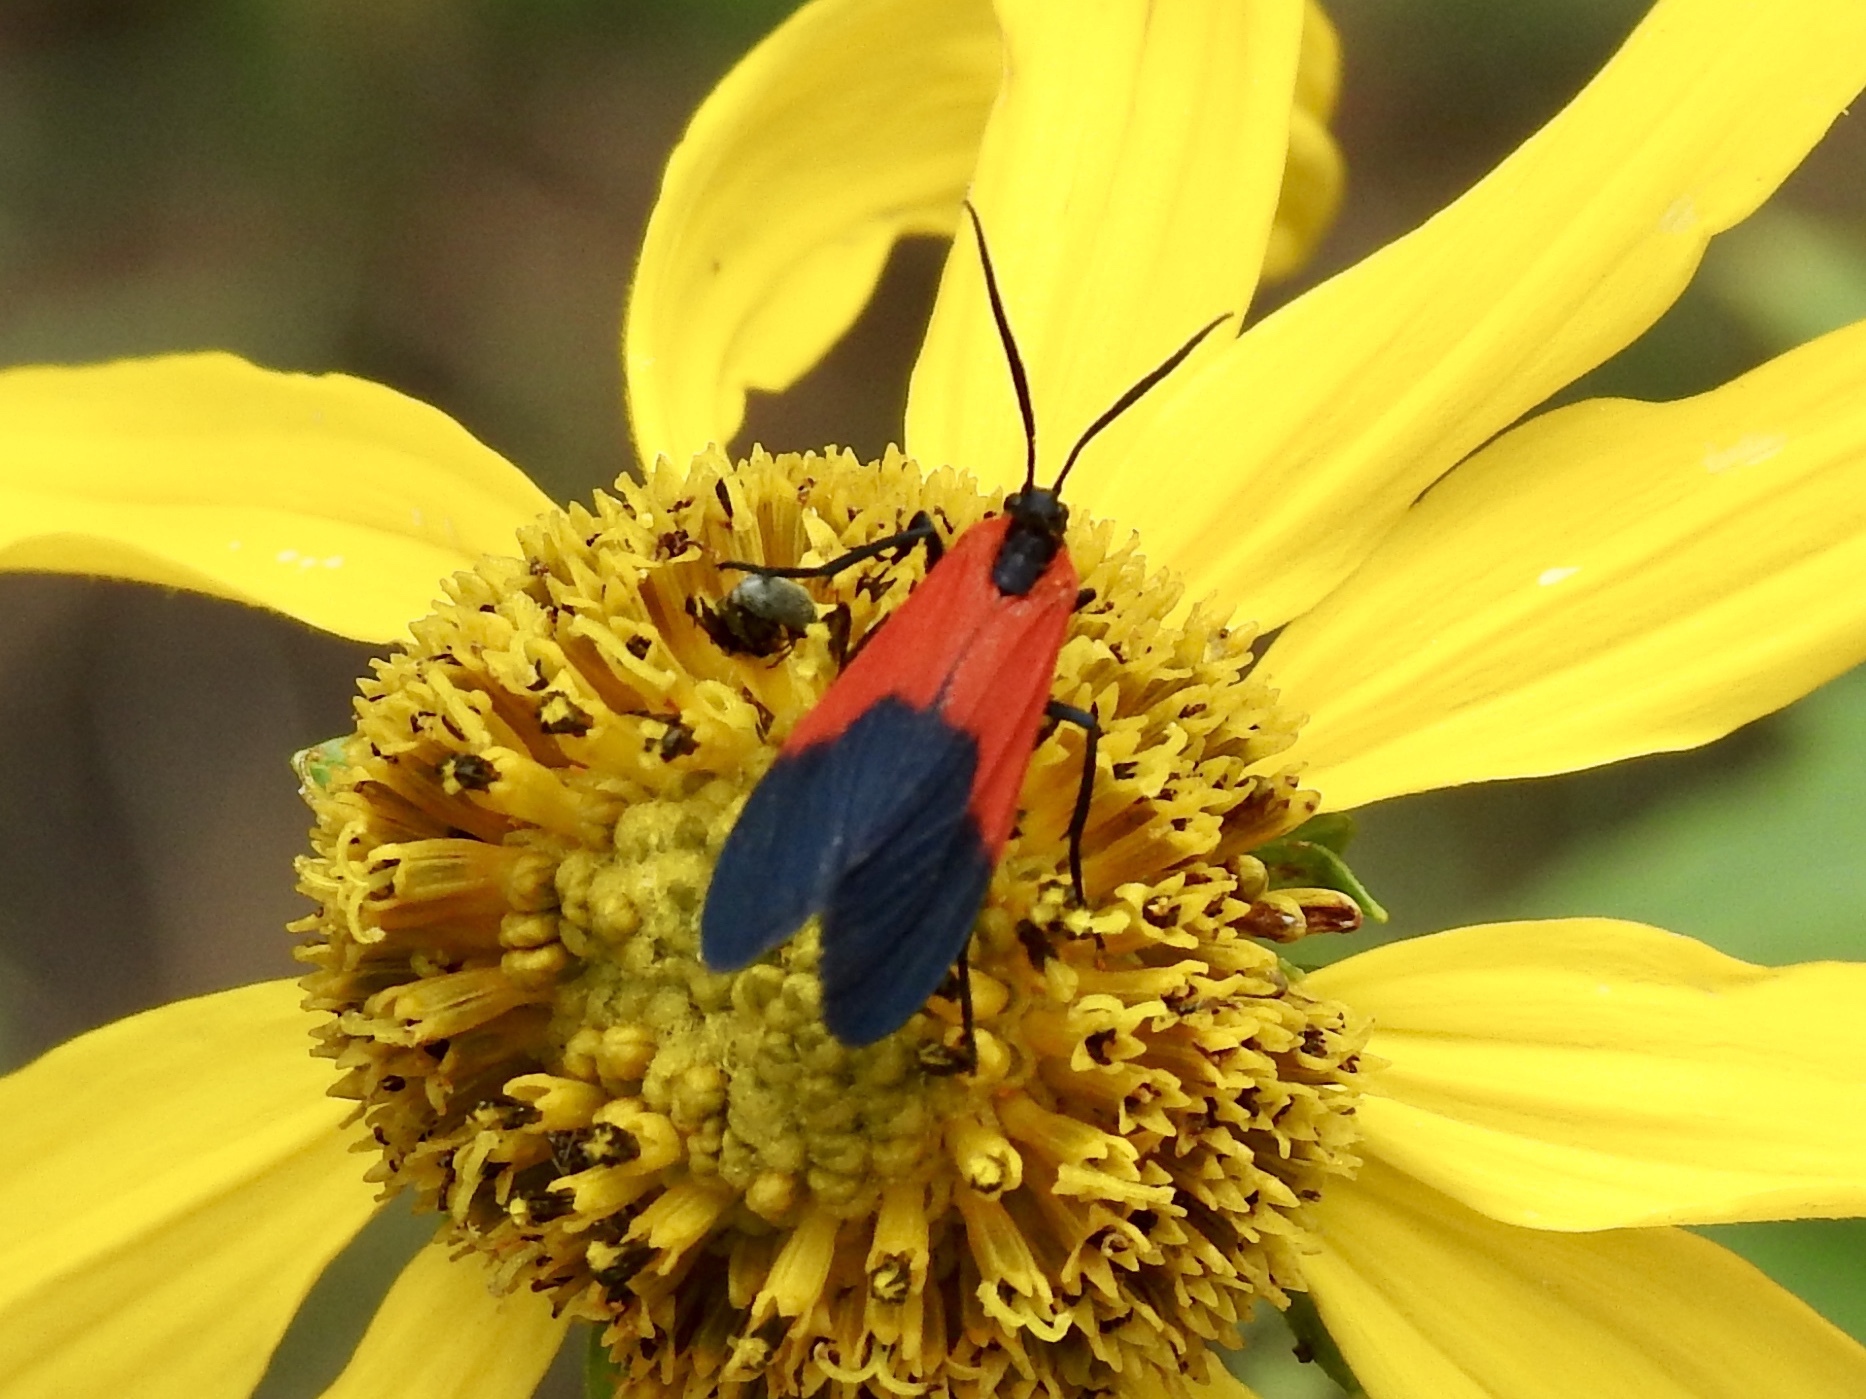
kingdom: Animalia
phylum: Arthropoda
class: Insecta
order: Lepidoptera
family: Erebidae
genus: Lycomorpha
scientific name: Lycomorpha pholus
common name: Black-and-yellow lichen moth
